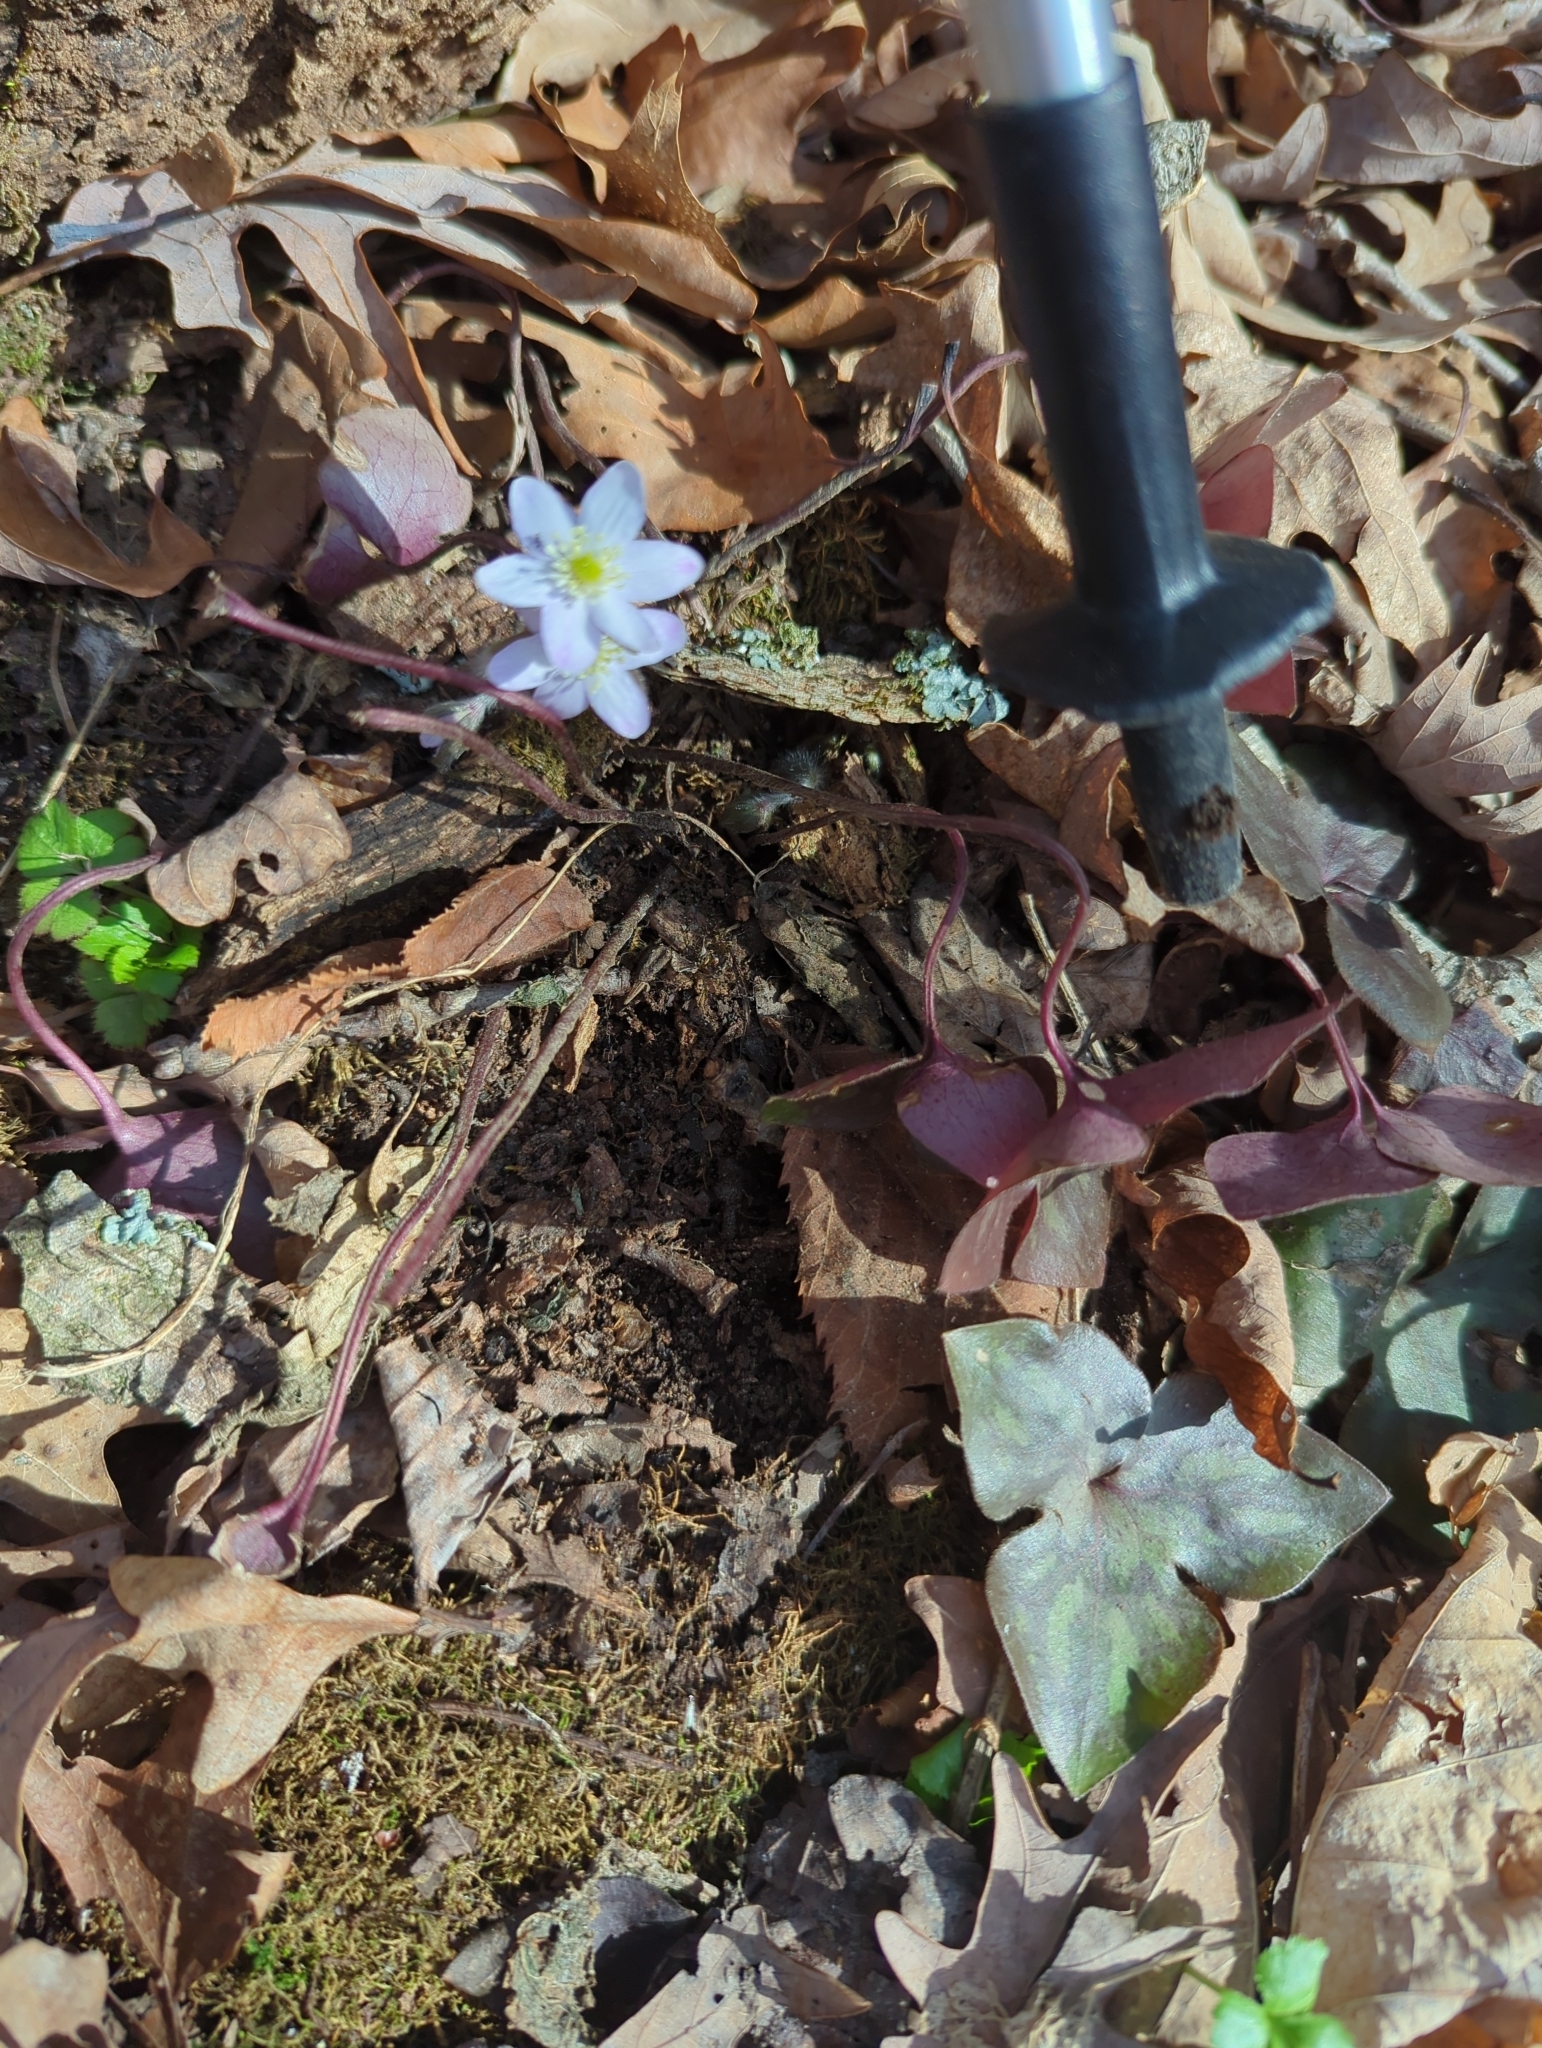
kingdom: Plantae
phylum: Tracheophyta
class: Magnoliopsida
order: Ranunculales
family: Ranunculaceae
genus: Hepatica
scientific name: Hepatica acutiloba
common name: Sharp-lobed hepatica
